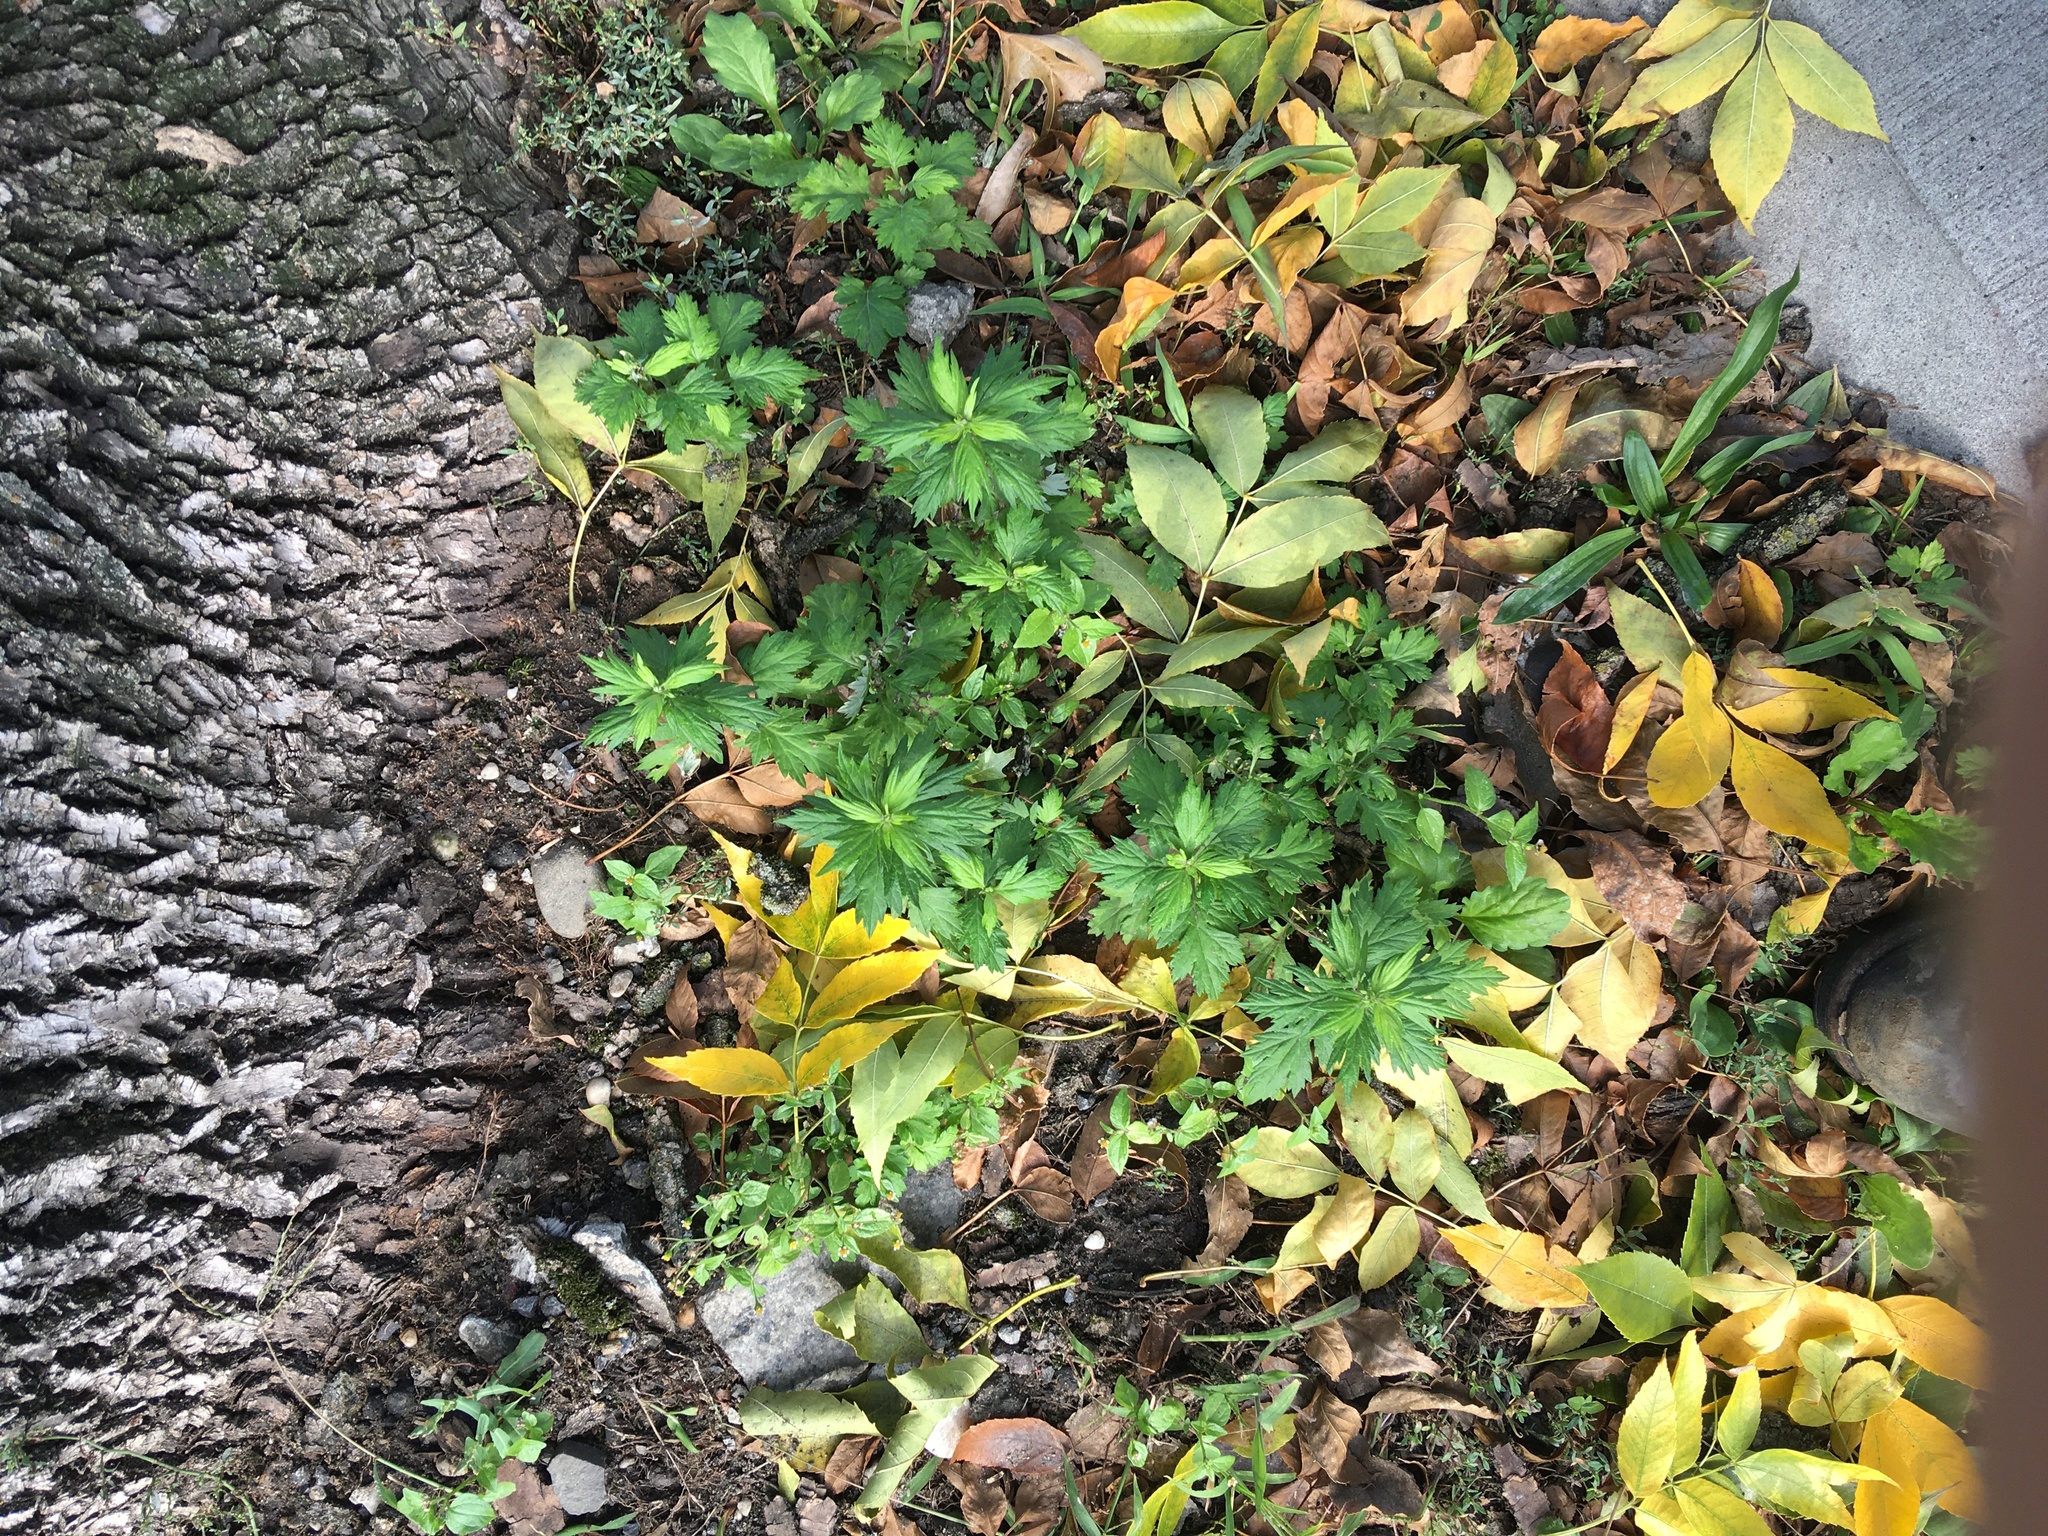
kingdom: Plantae
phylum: Tracheophyta
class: Magnoliopsida
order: Asterales
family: Asteraceae
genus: Artemisia
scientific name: Artemisia vulgaris
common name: Mugwort
